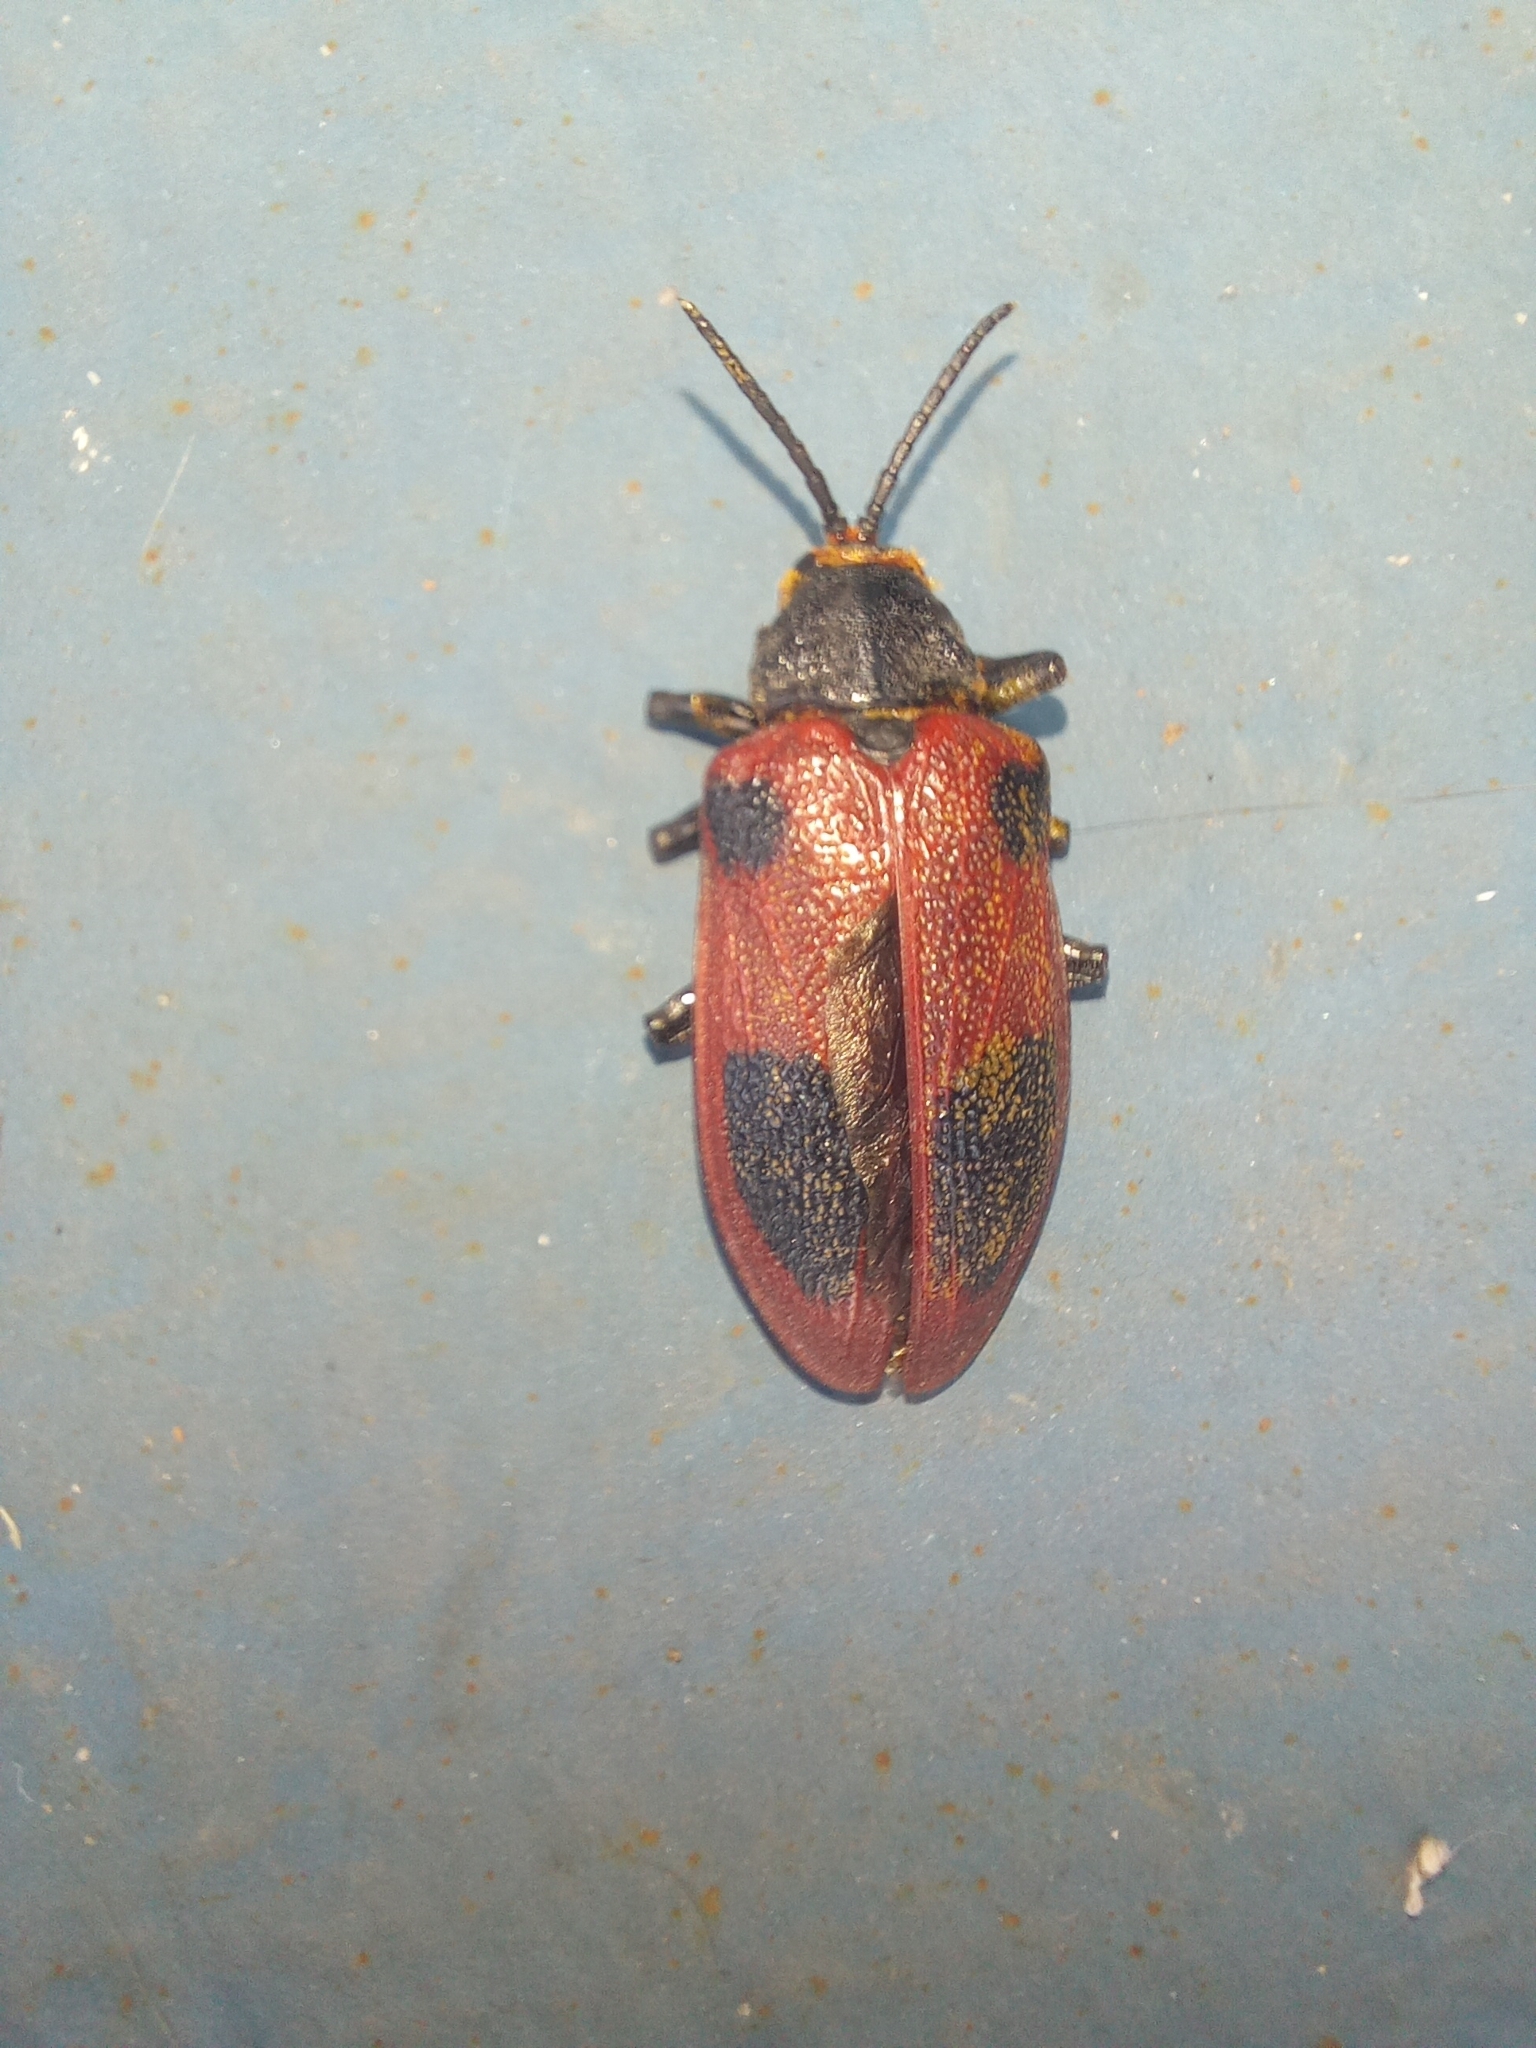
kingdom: Animalia
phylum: Arthropoda
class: Insecta
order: Coleoptera
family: Chrysomelidae
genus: Coraliomela
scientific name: Coraliomela quadrimaculata
